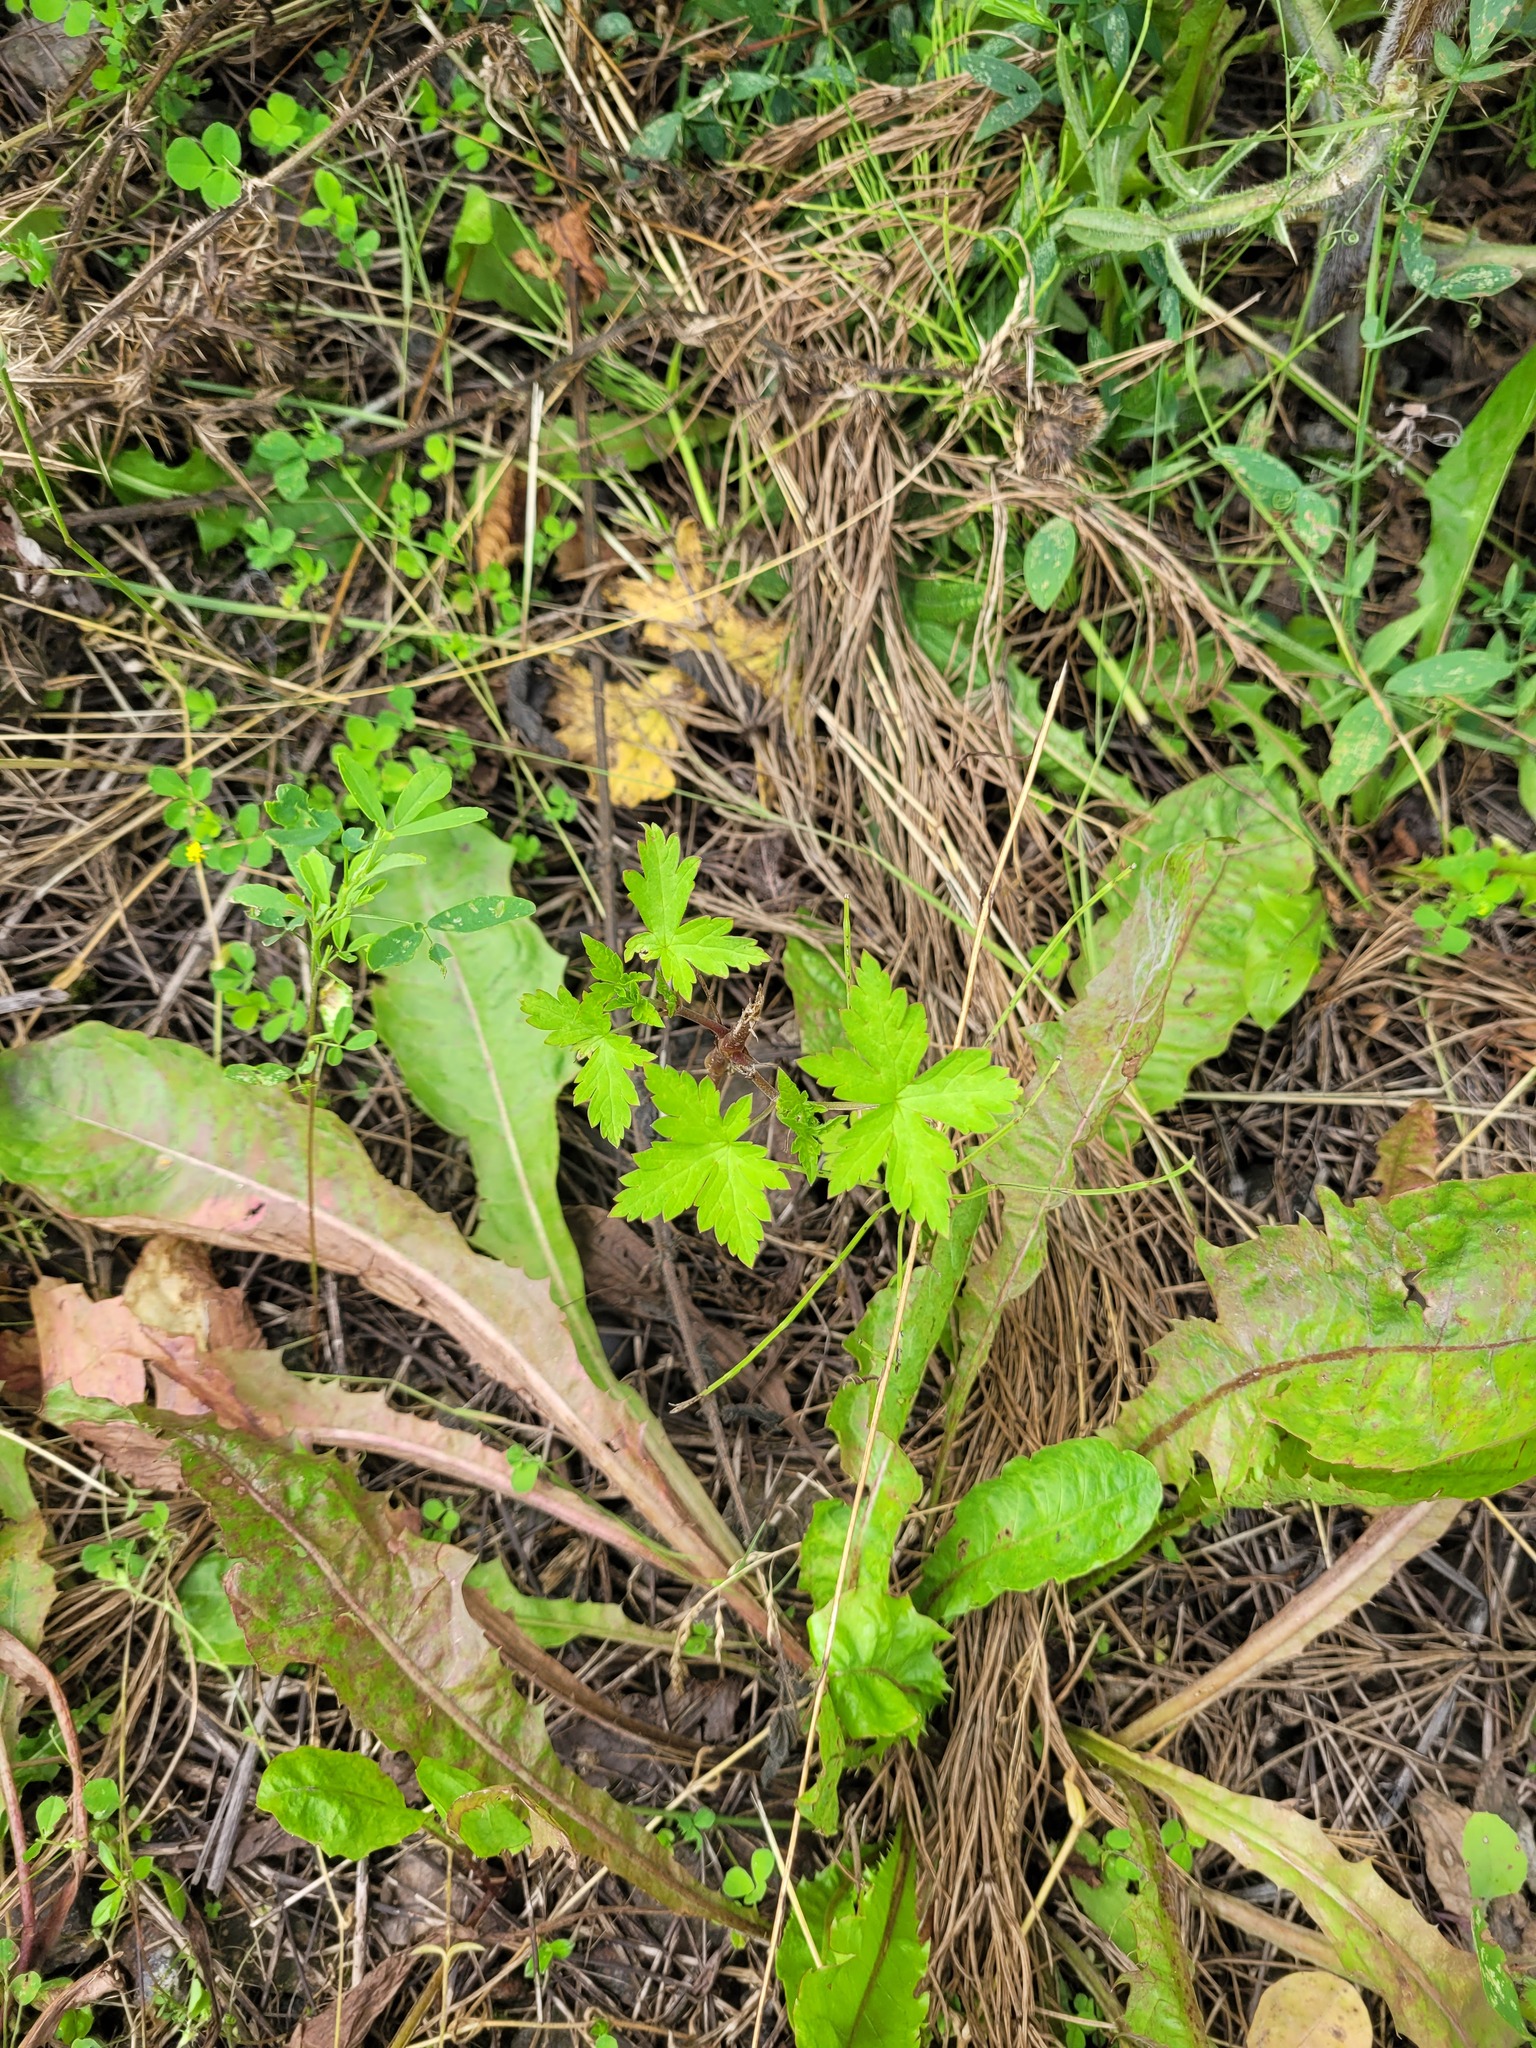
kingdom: Plantae
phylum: Tracheophyta
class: Magnoliopsida
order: Geraniales
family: Geraniaceae
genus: Geranium
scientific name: Geranium sibiricum
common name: Siberian crane's-bill
